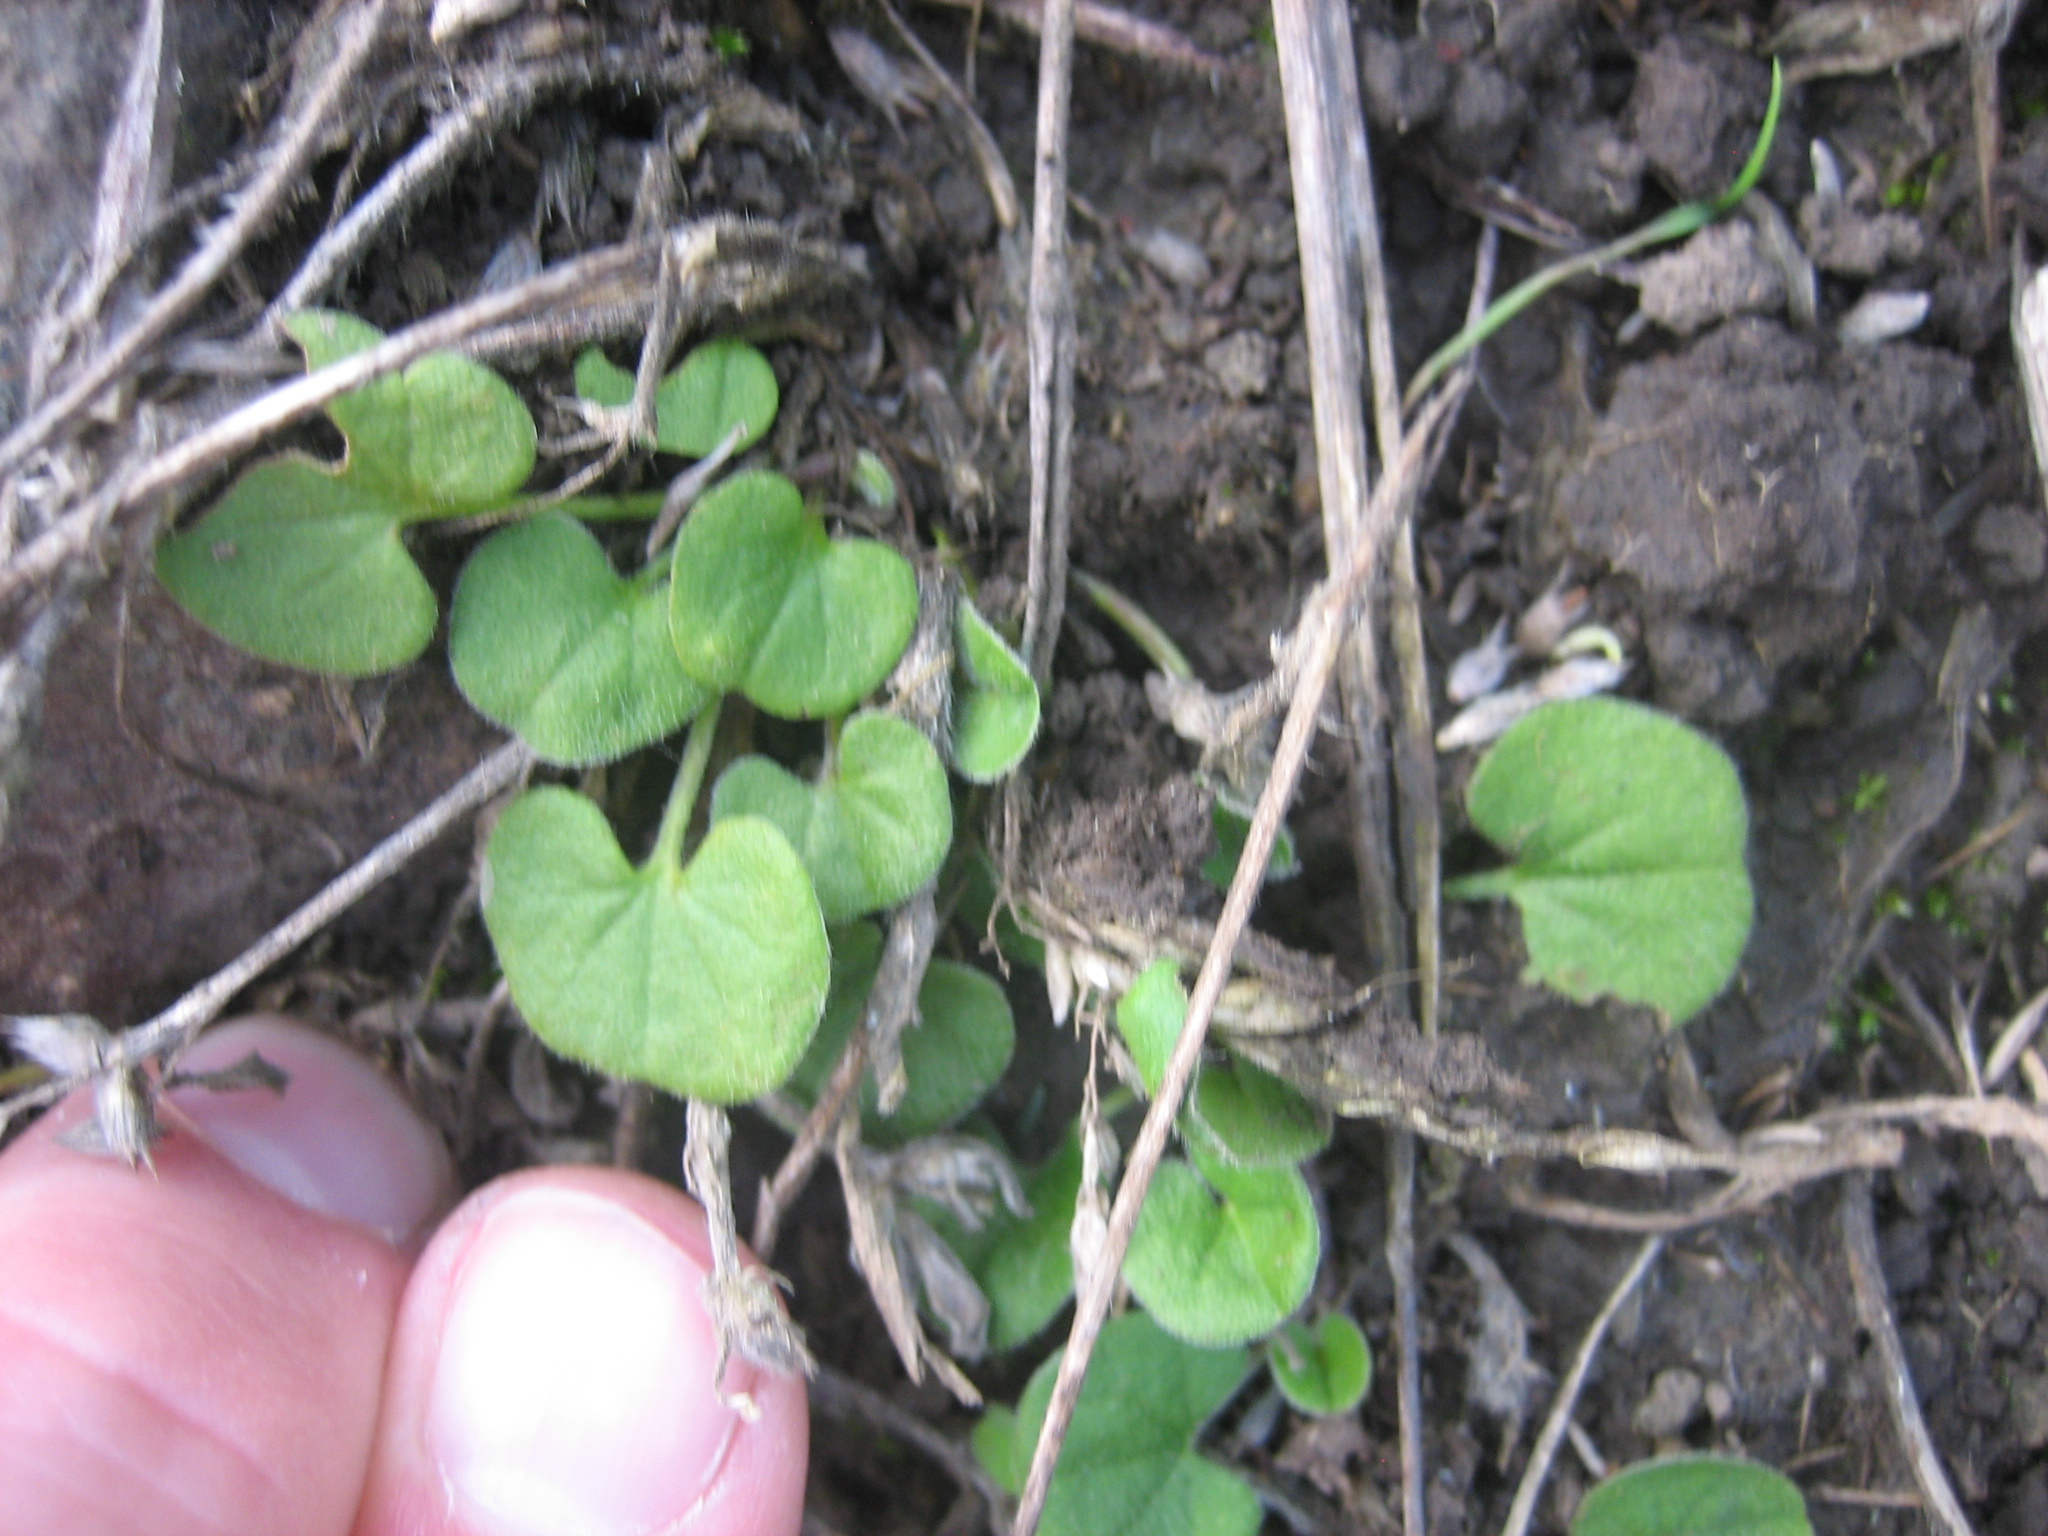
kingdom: Plantae
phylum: Tracheophyta
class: Magnoliopsida
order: Solanales
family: Convolvulaceae
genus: Dichondra
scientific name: Dichondra repens
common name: Kidneyweed
